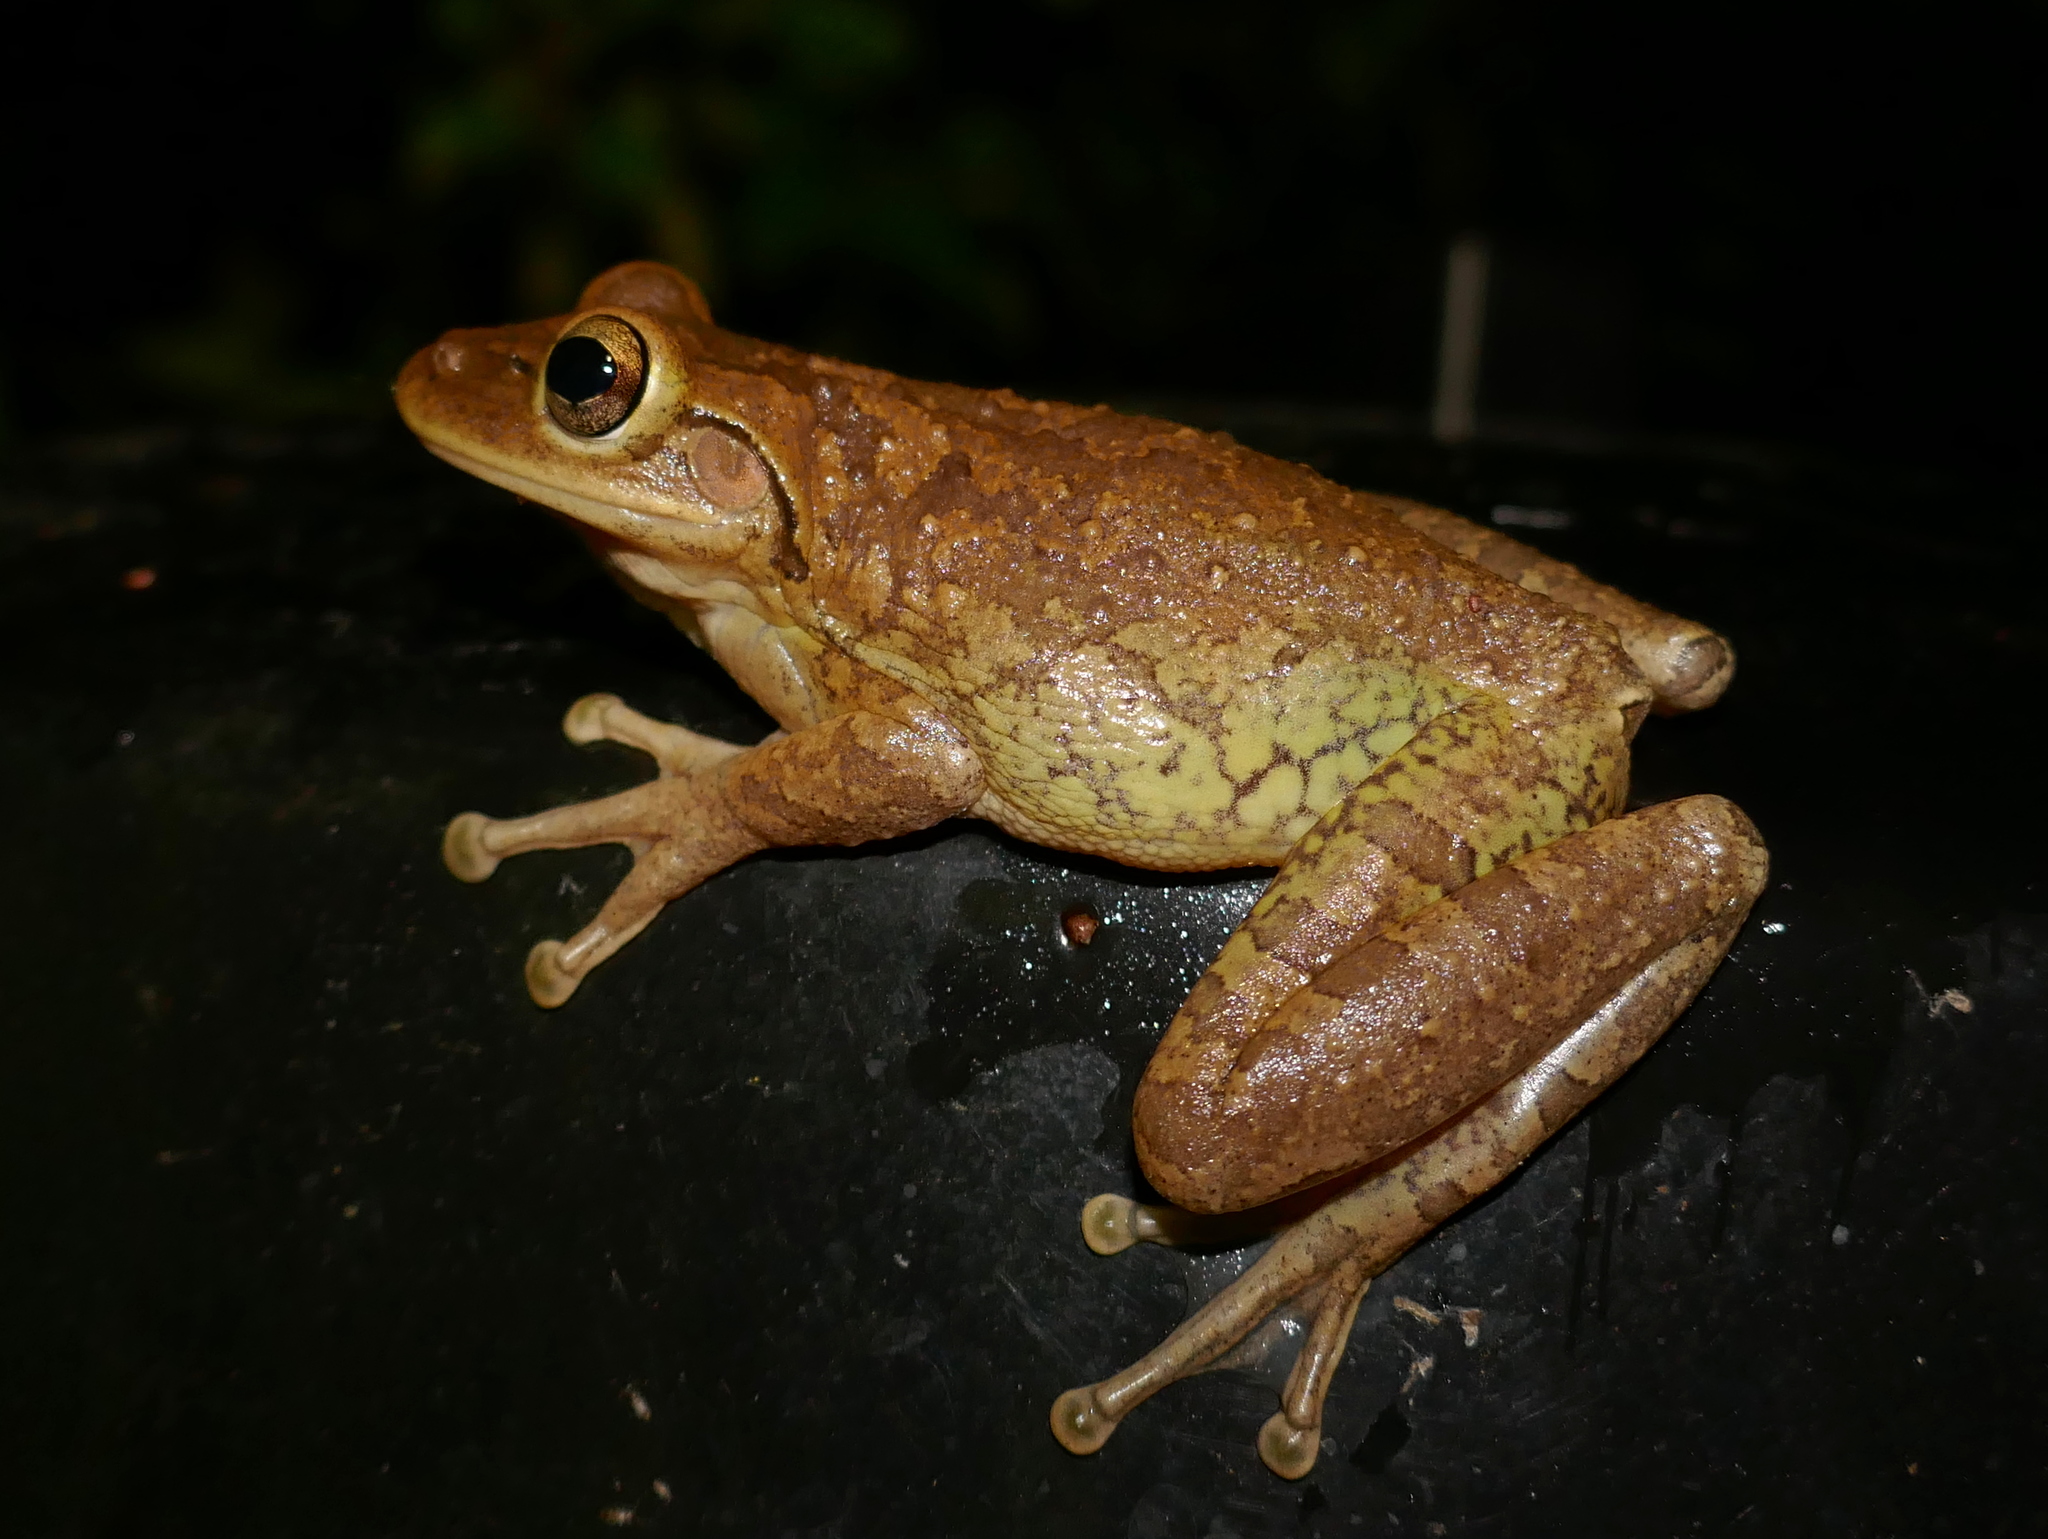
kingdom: Animalia
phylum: Chordata
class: Amphibia
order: Anura
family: Hylidae
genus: Osteopilus
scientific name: Osteopilus septentrionalis
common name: Cuban treefrog
